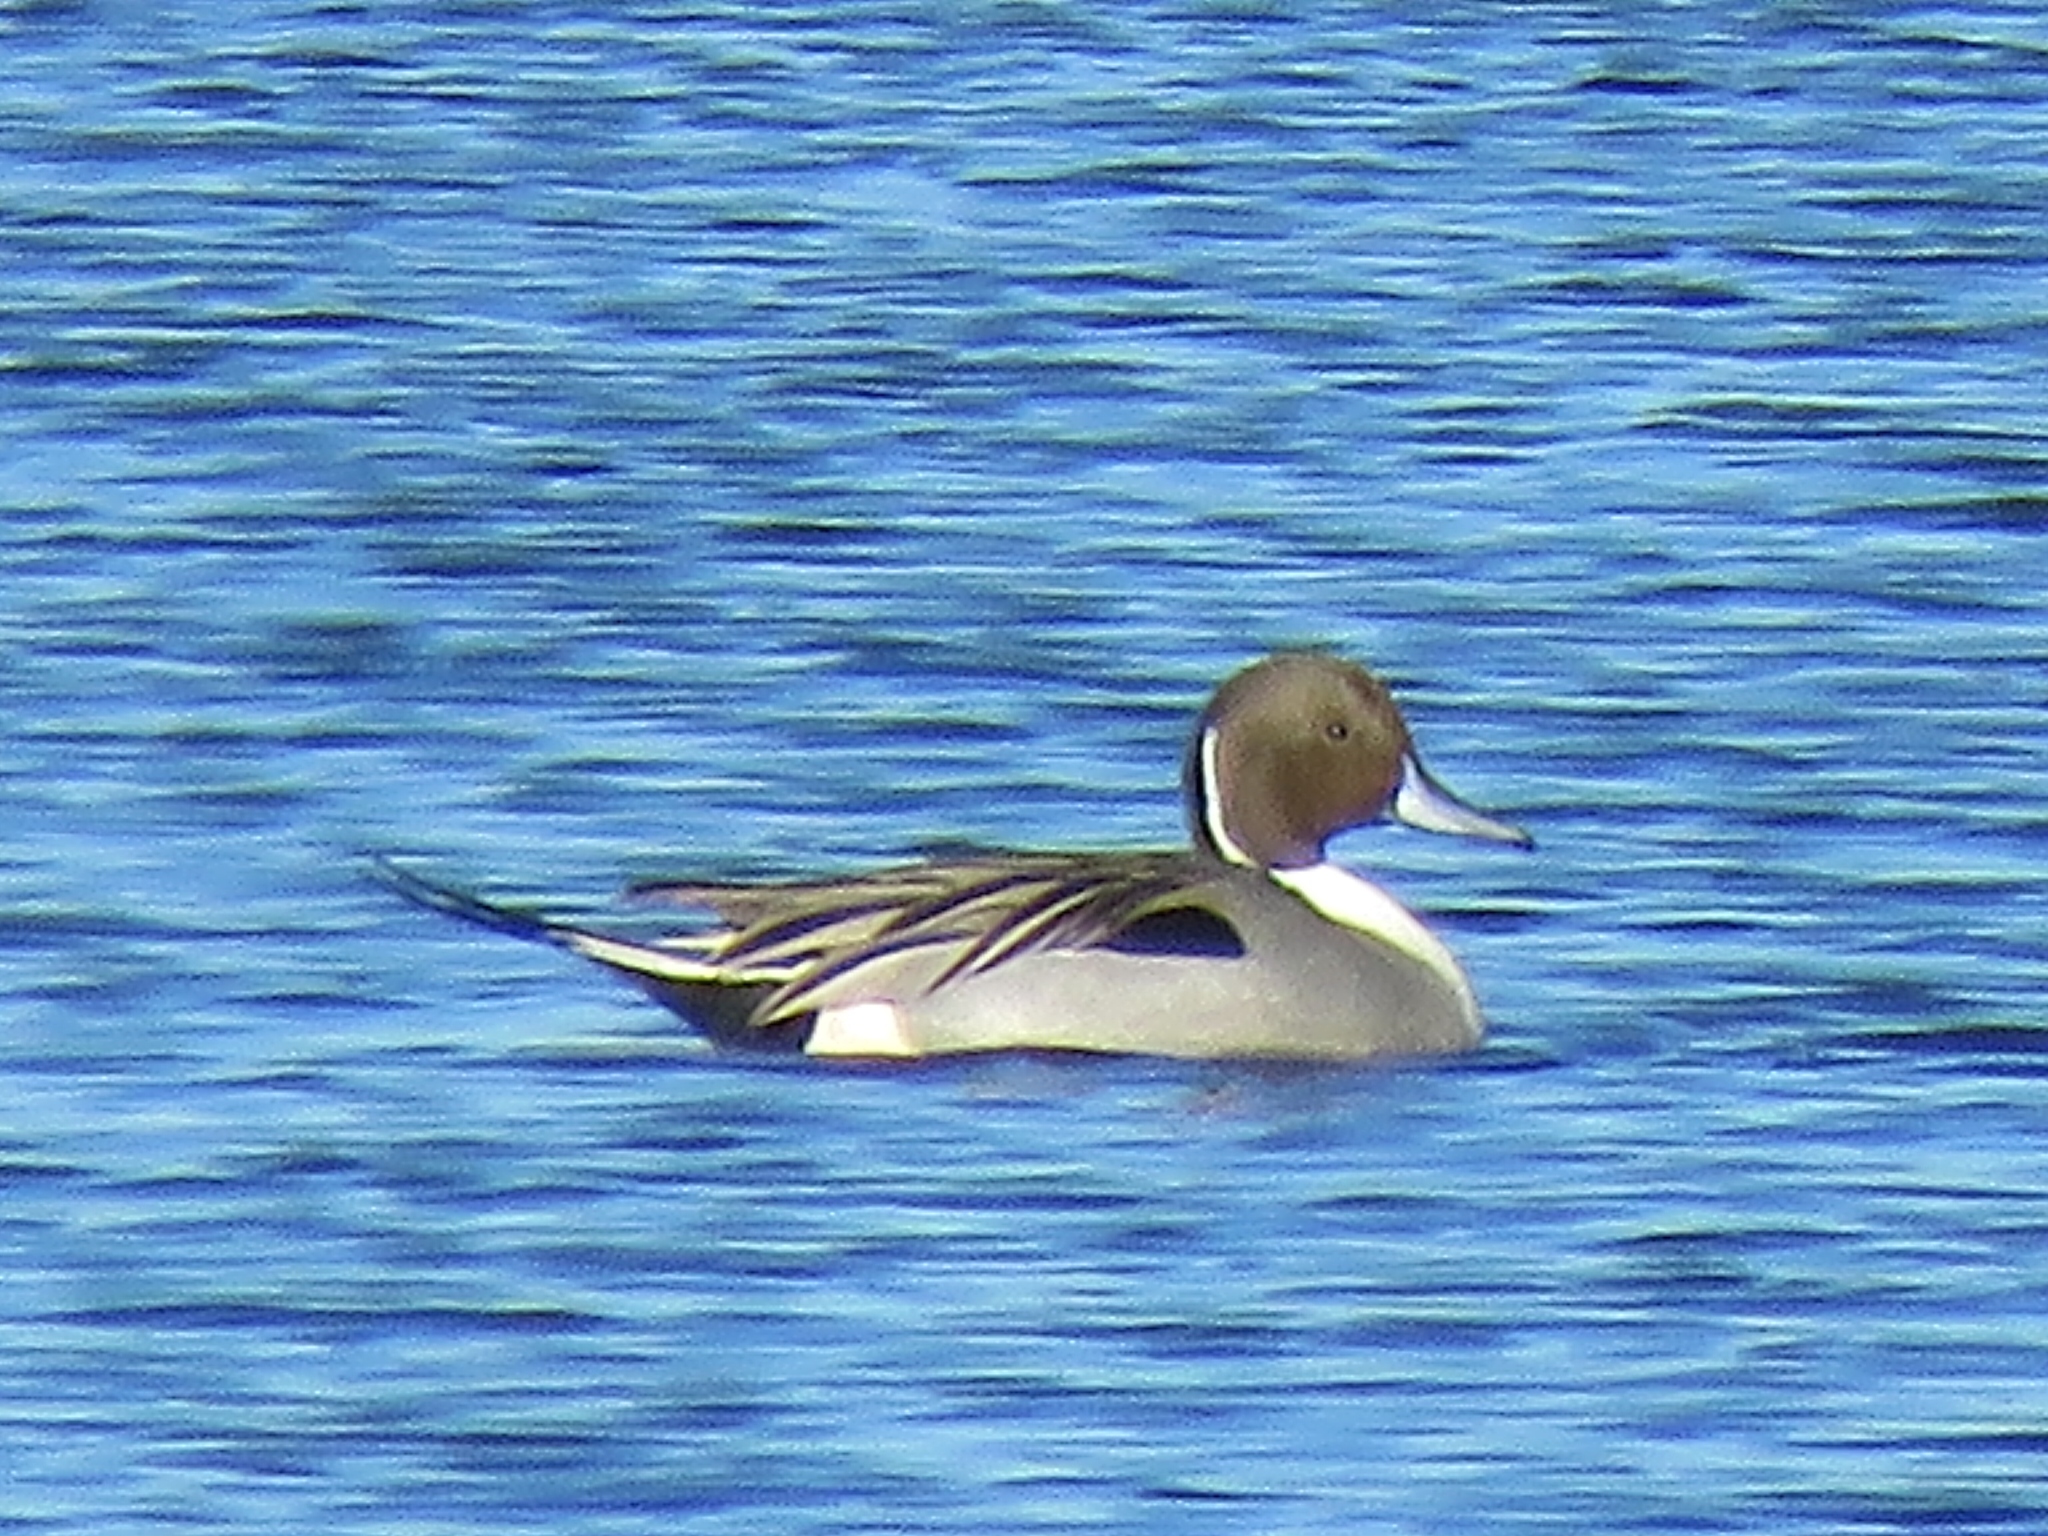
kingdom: Animalia
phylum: Chordata
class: Aves
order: Anseriformes
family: Anatidae
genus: Anas
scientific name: Anas acuta
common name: Northern pintail
